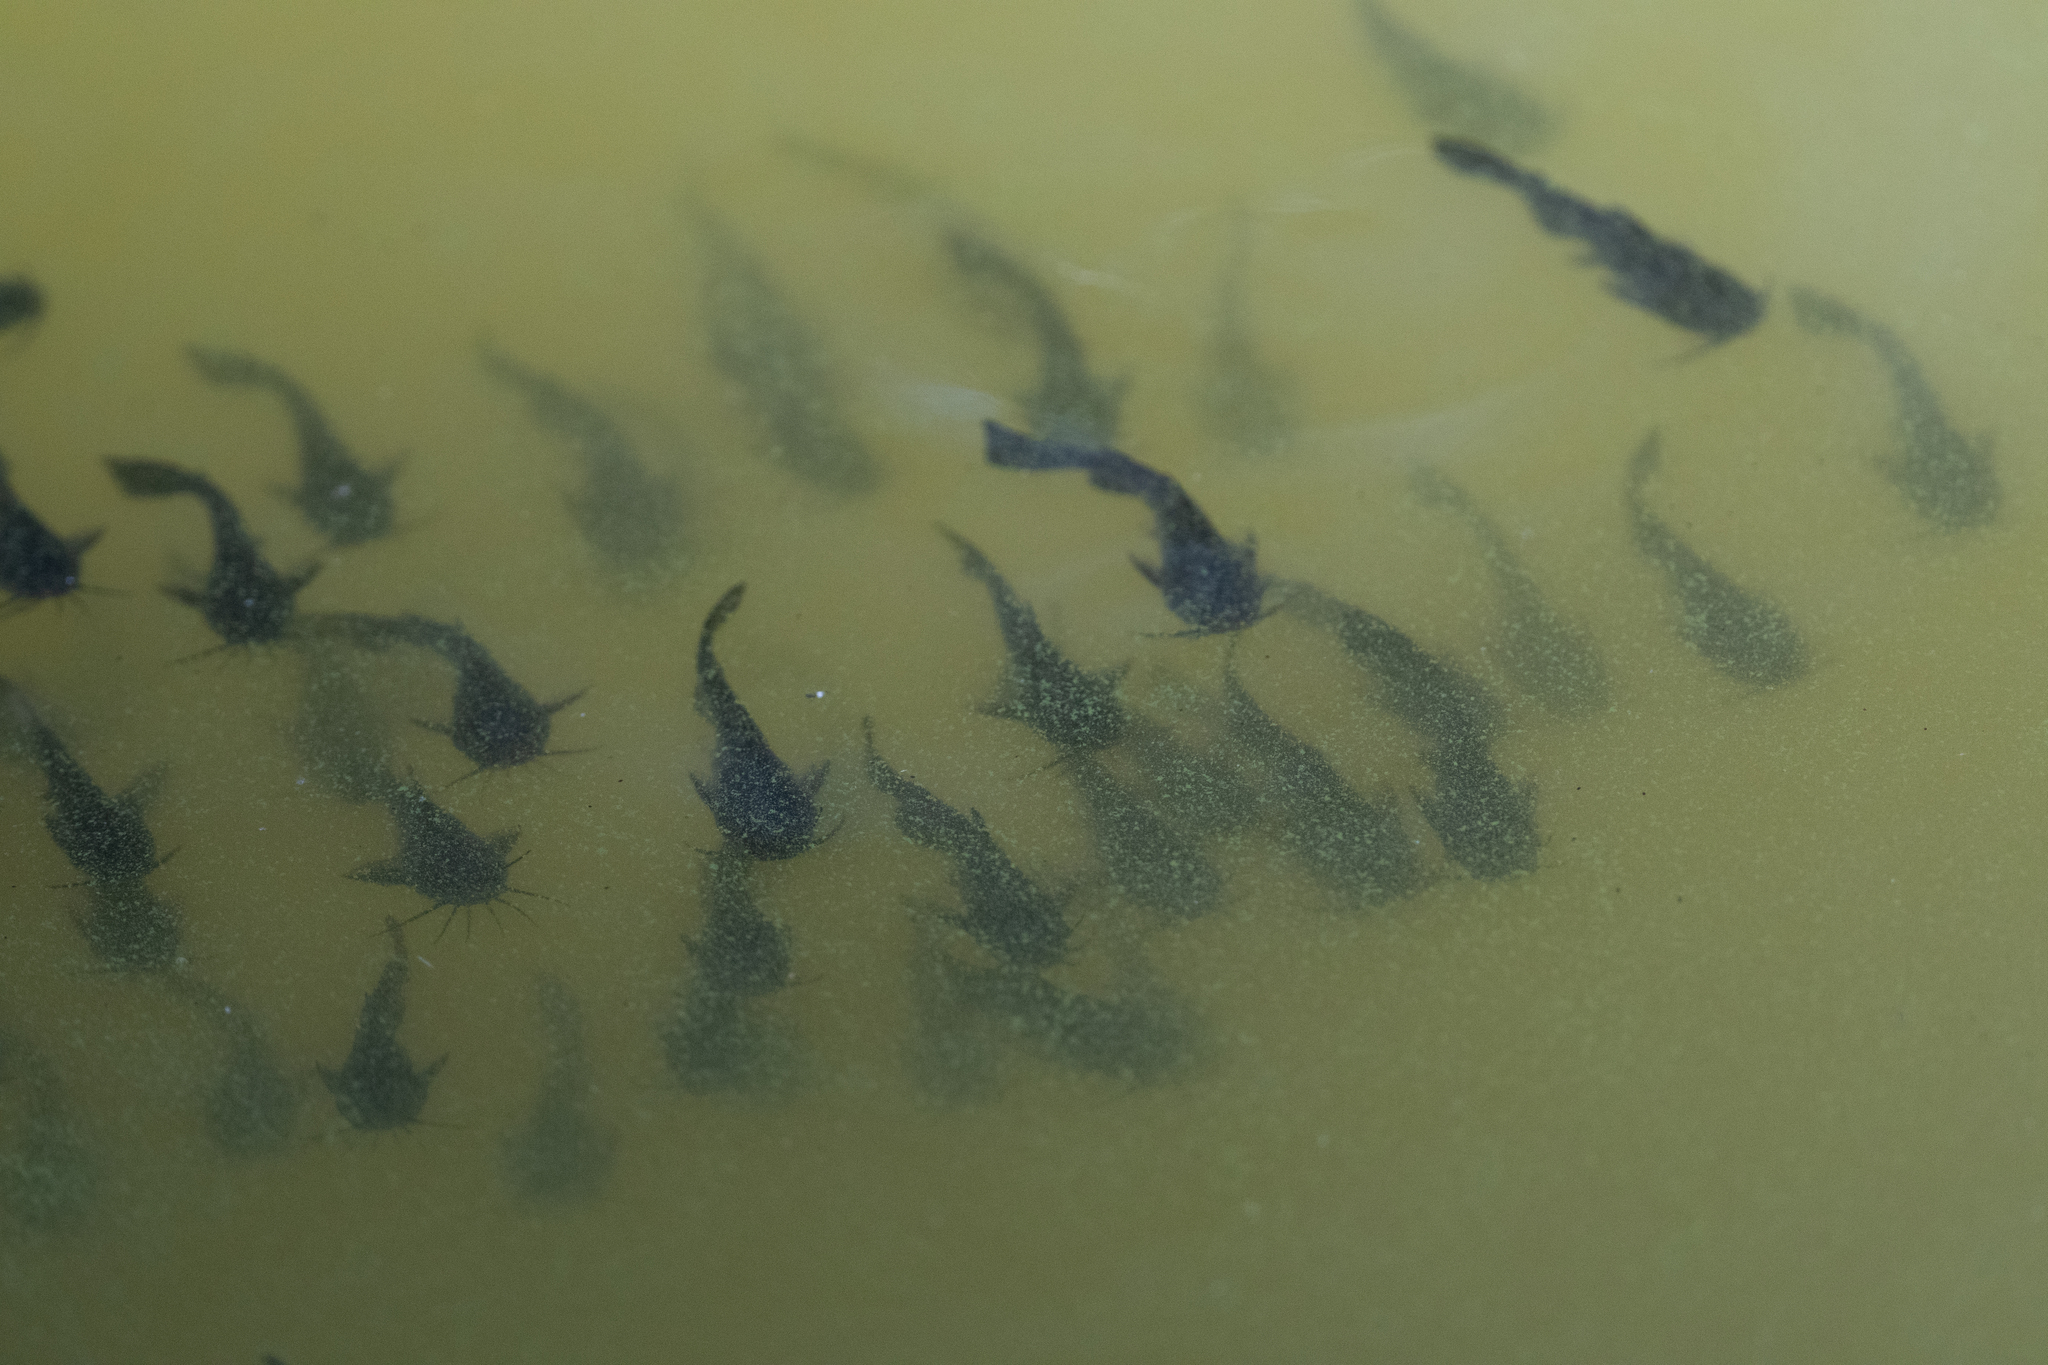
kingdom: Animalia
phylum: Chordata
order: Siluriformes
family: Ictaluridae
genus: Ameiurus
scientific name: Ameiurus melas
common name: Black bullhead
